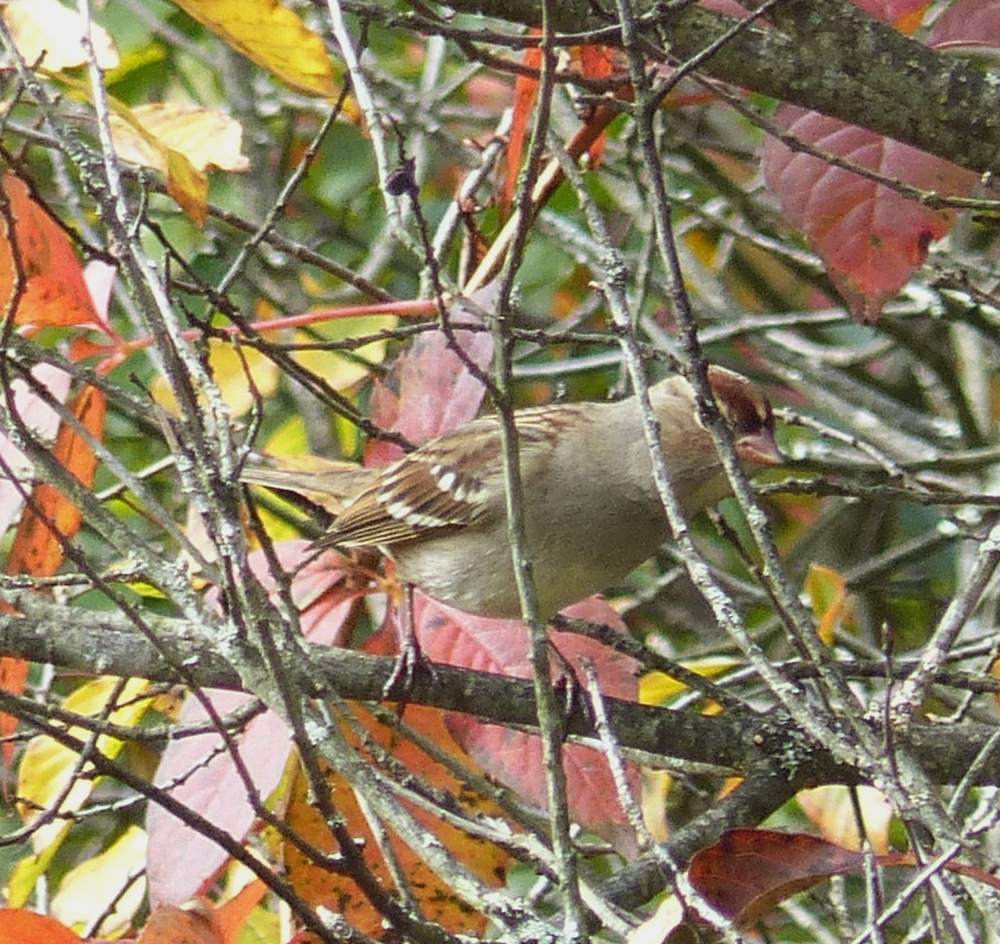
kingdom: Animalia
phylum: Chordata
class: Aves
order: Passeriformes
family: Passerellidae
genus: Zonotrichia
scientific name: Zonotrichia leucophrys
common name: White-crowned sparrow
